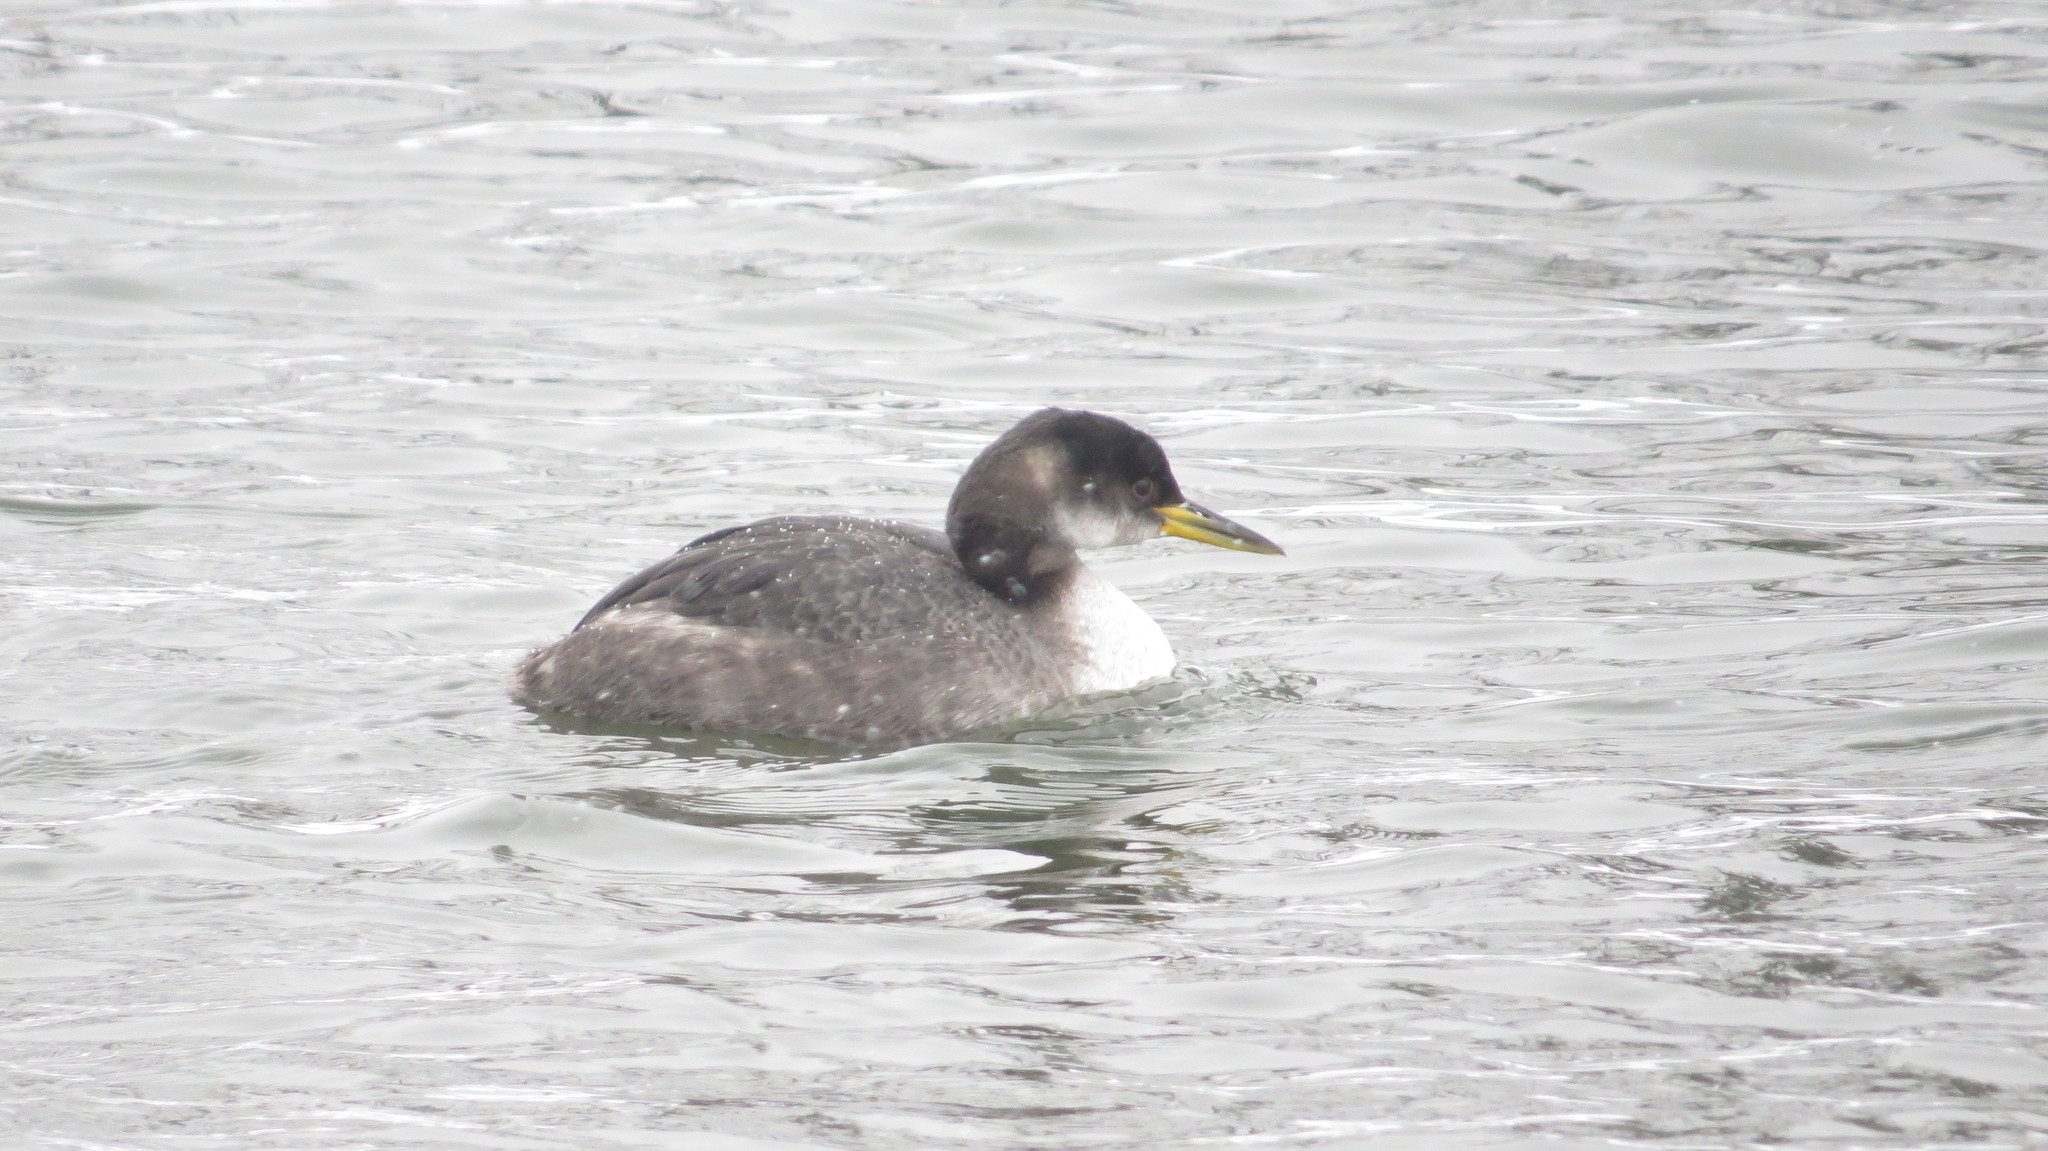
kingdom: Animalia
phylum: Chordata
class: Aves
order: Podicipediformes
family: Podicipedidae
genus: Podiceps
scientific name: Podiceps grisegena
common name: Red-necked grebe
